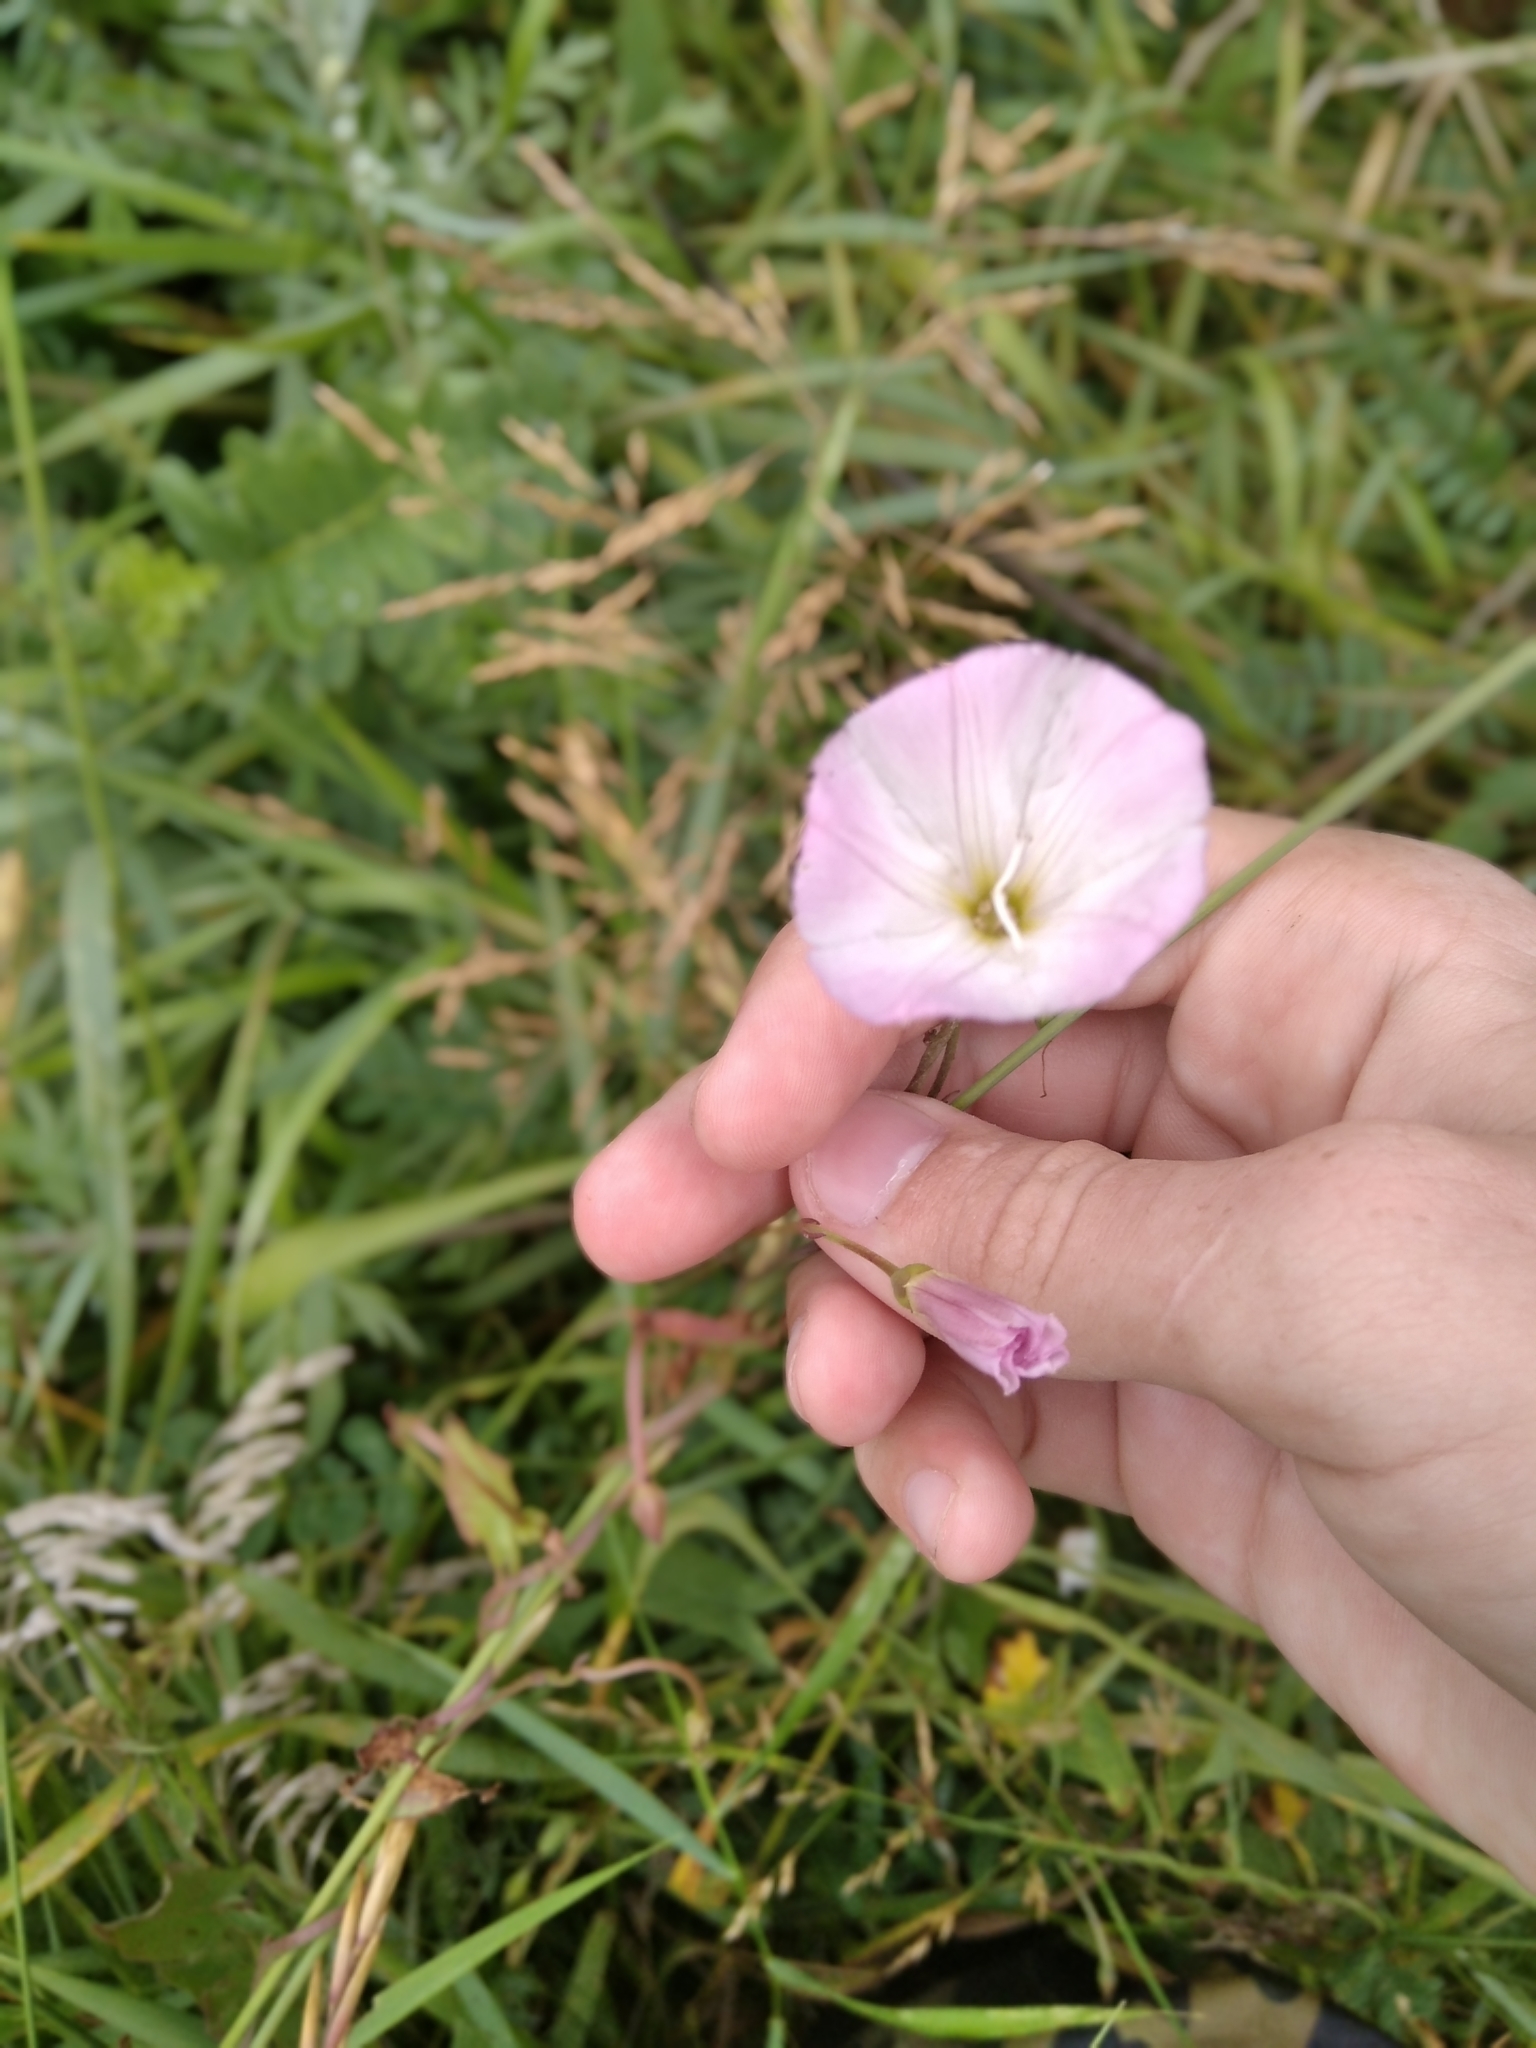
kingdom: Plantae
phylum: Tracheophyta
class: Magnoliopsida
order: Solanales
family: Convolvulaceae
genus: Convolvulus
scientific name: Convolvulus arvensis
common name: Field bindweed
